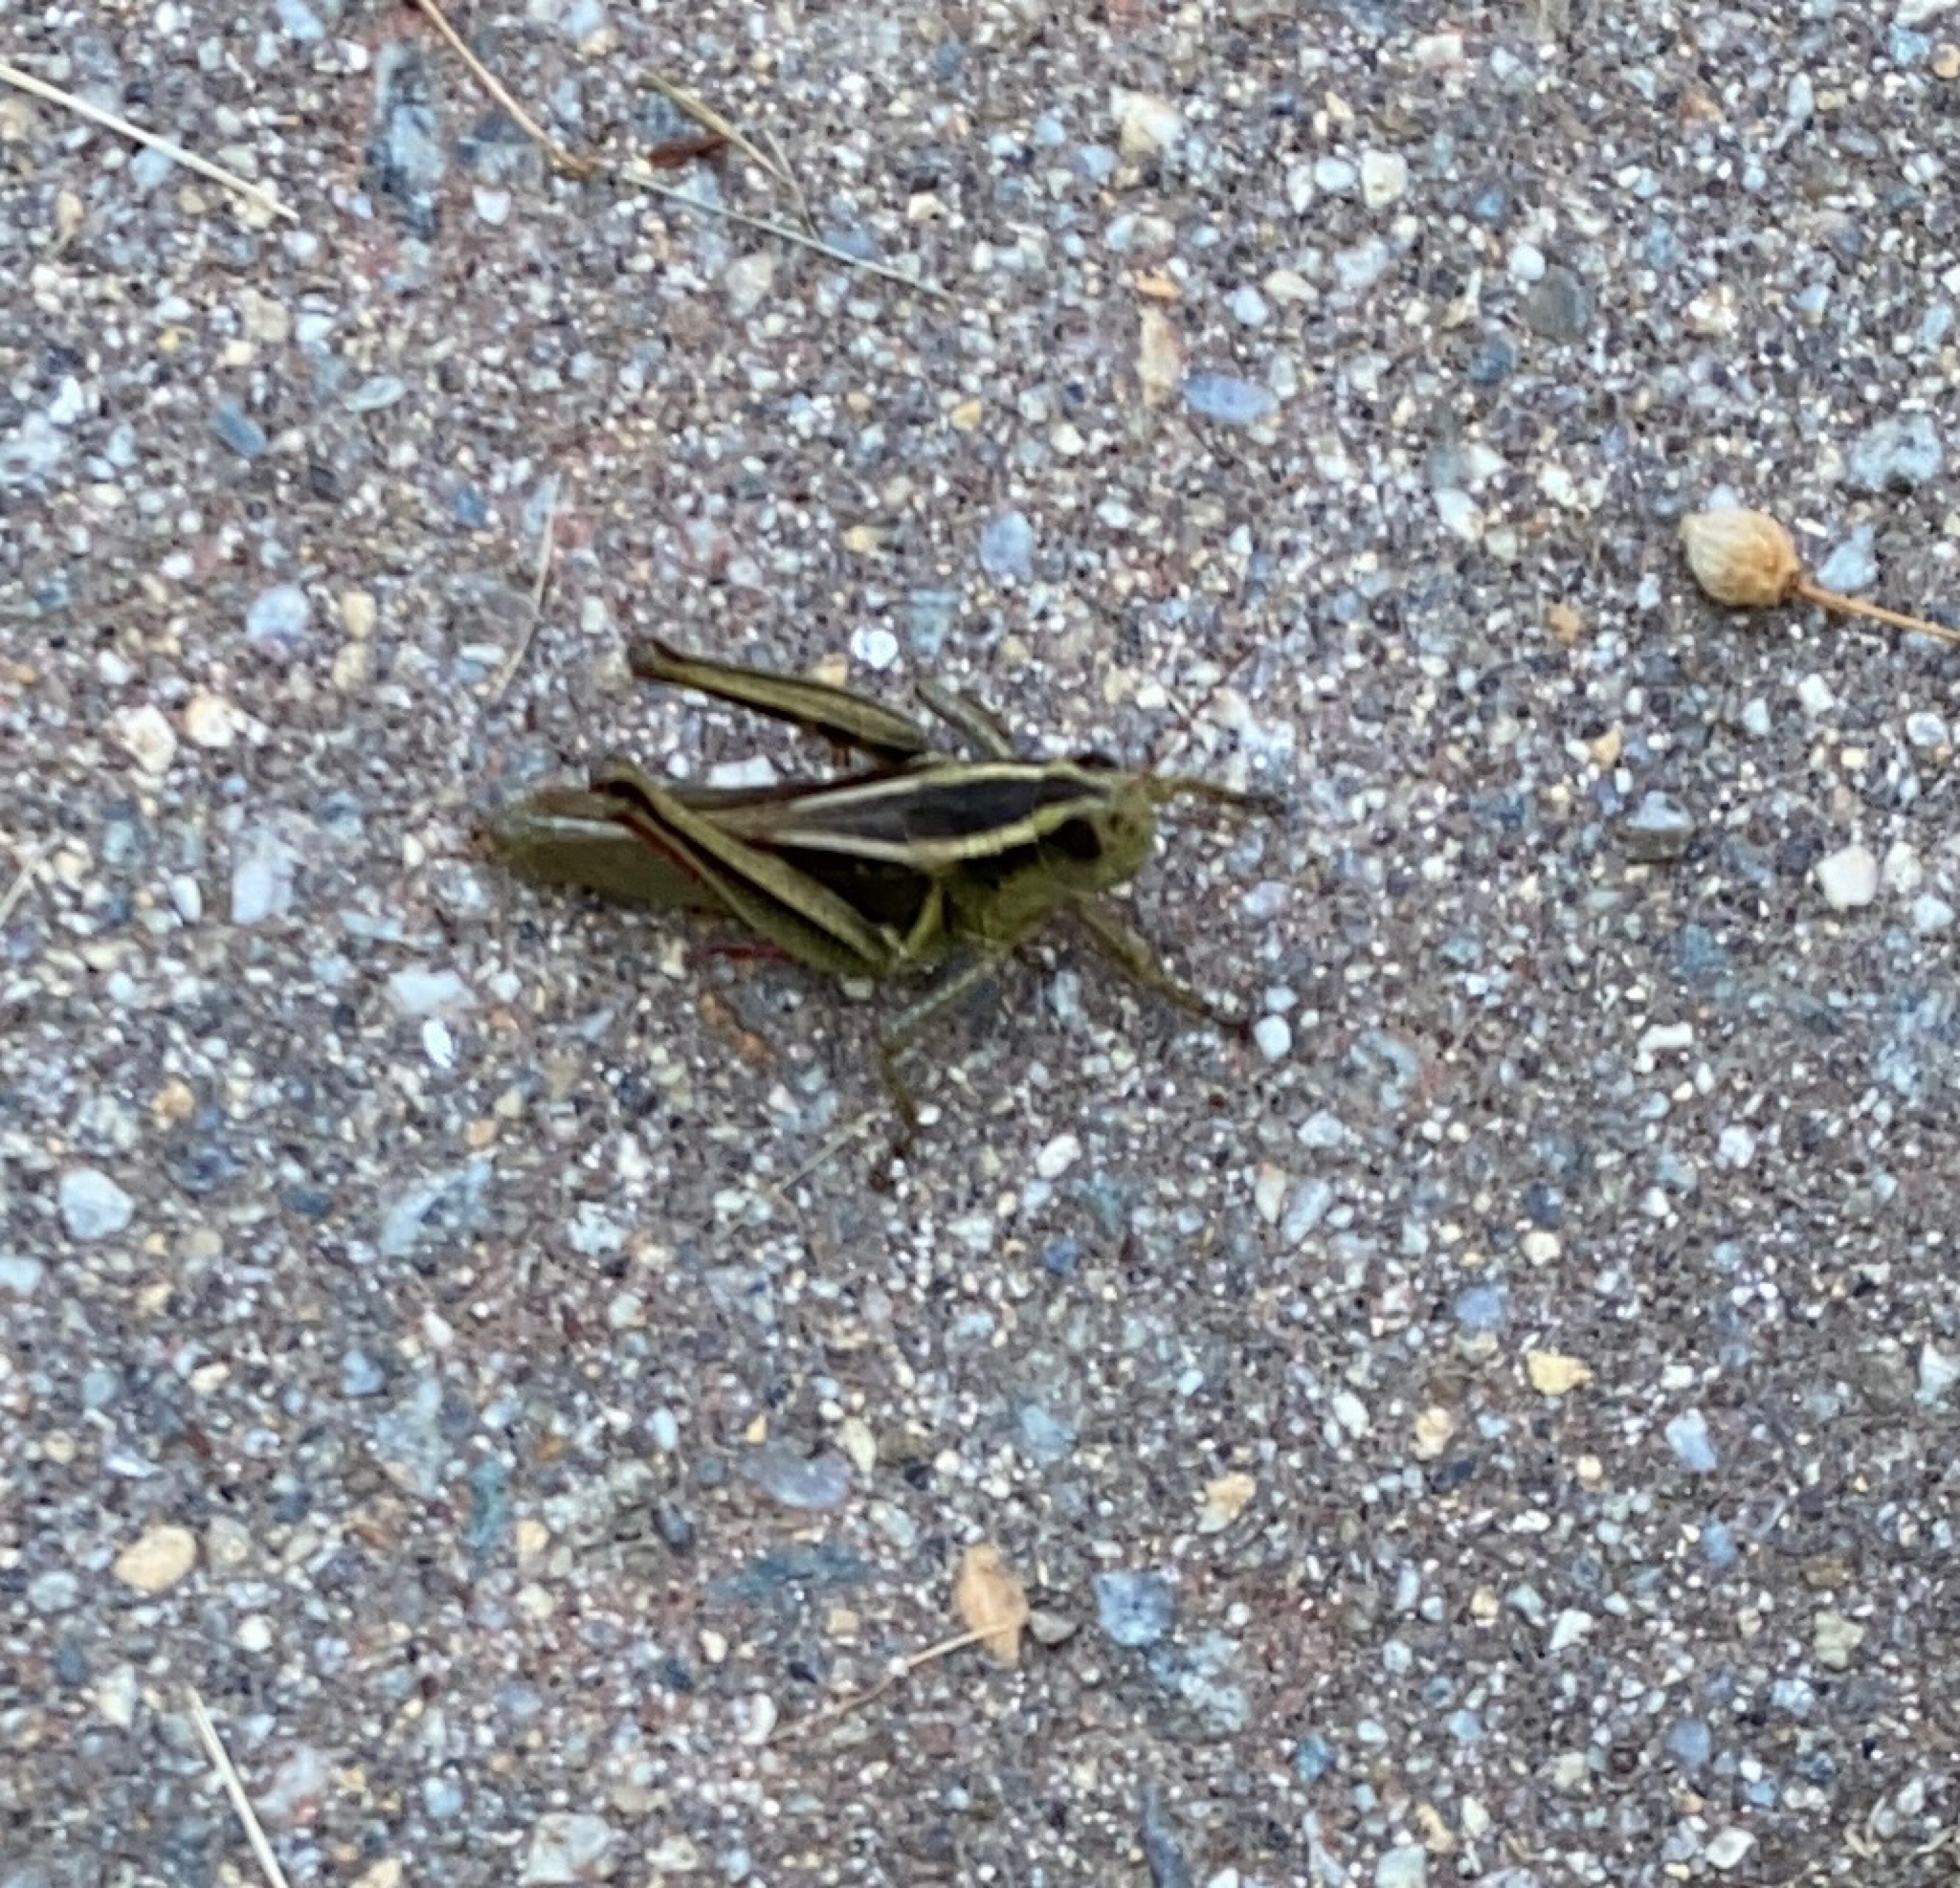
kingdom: Animalia
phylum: Arthropoda
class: Insecta
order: Orthoptera
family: Acrididae
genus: Melanoplus
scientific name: Melanoplus bivittatus
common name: Two-striped grasshopper
